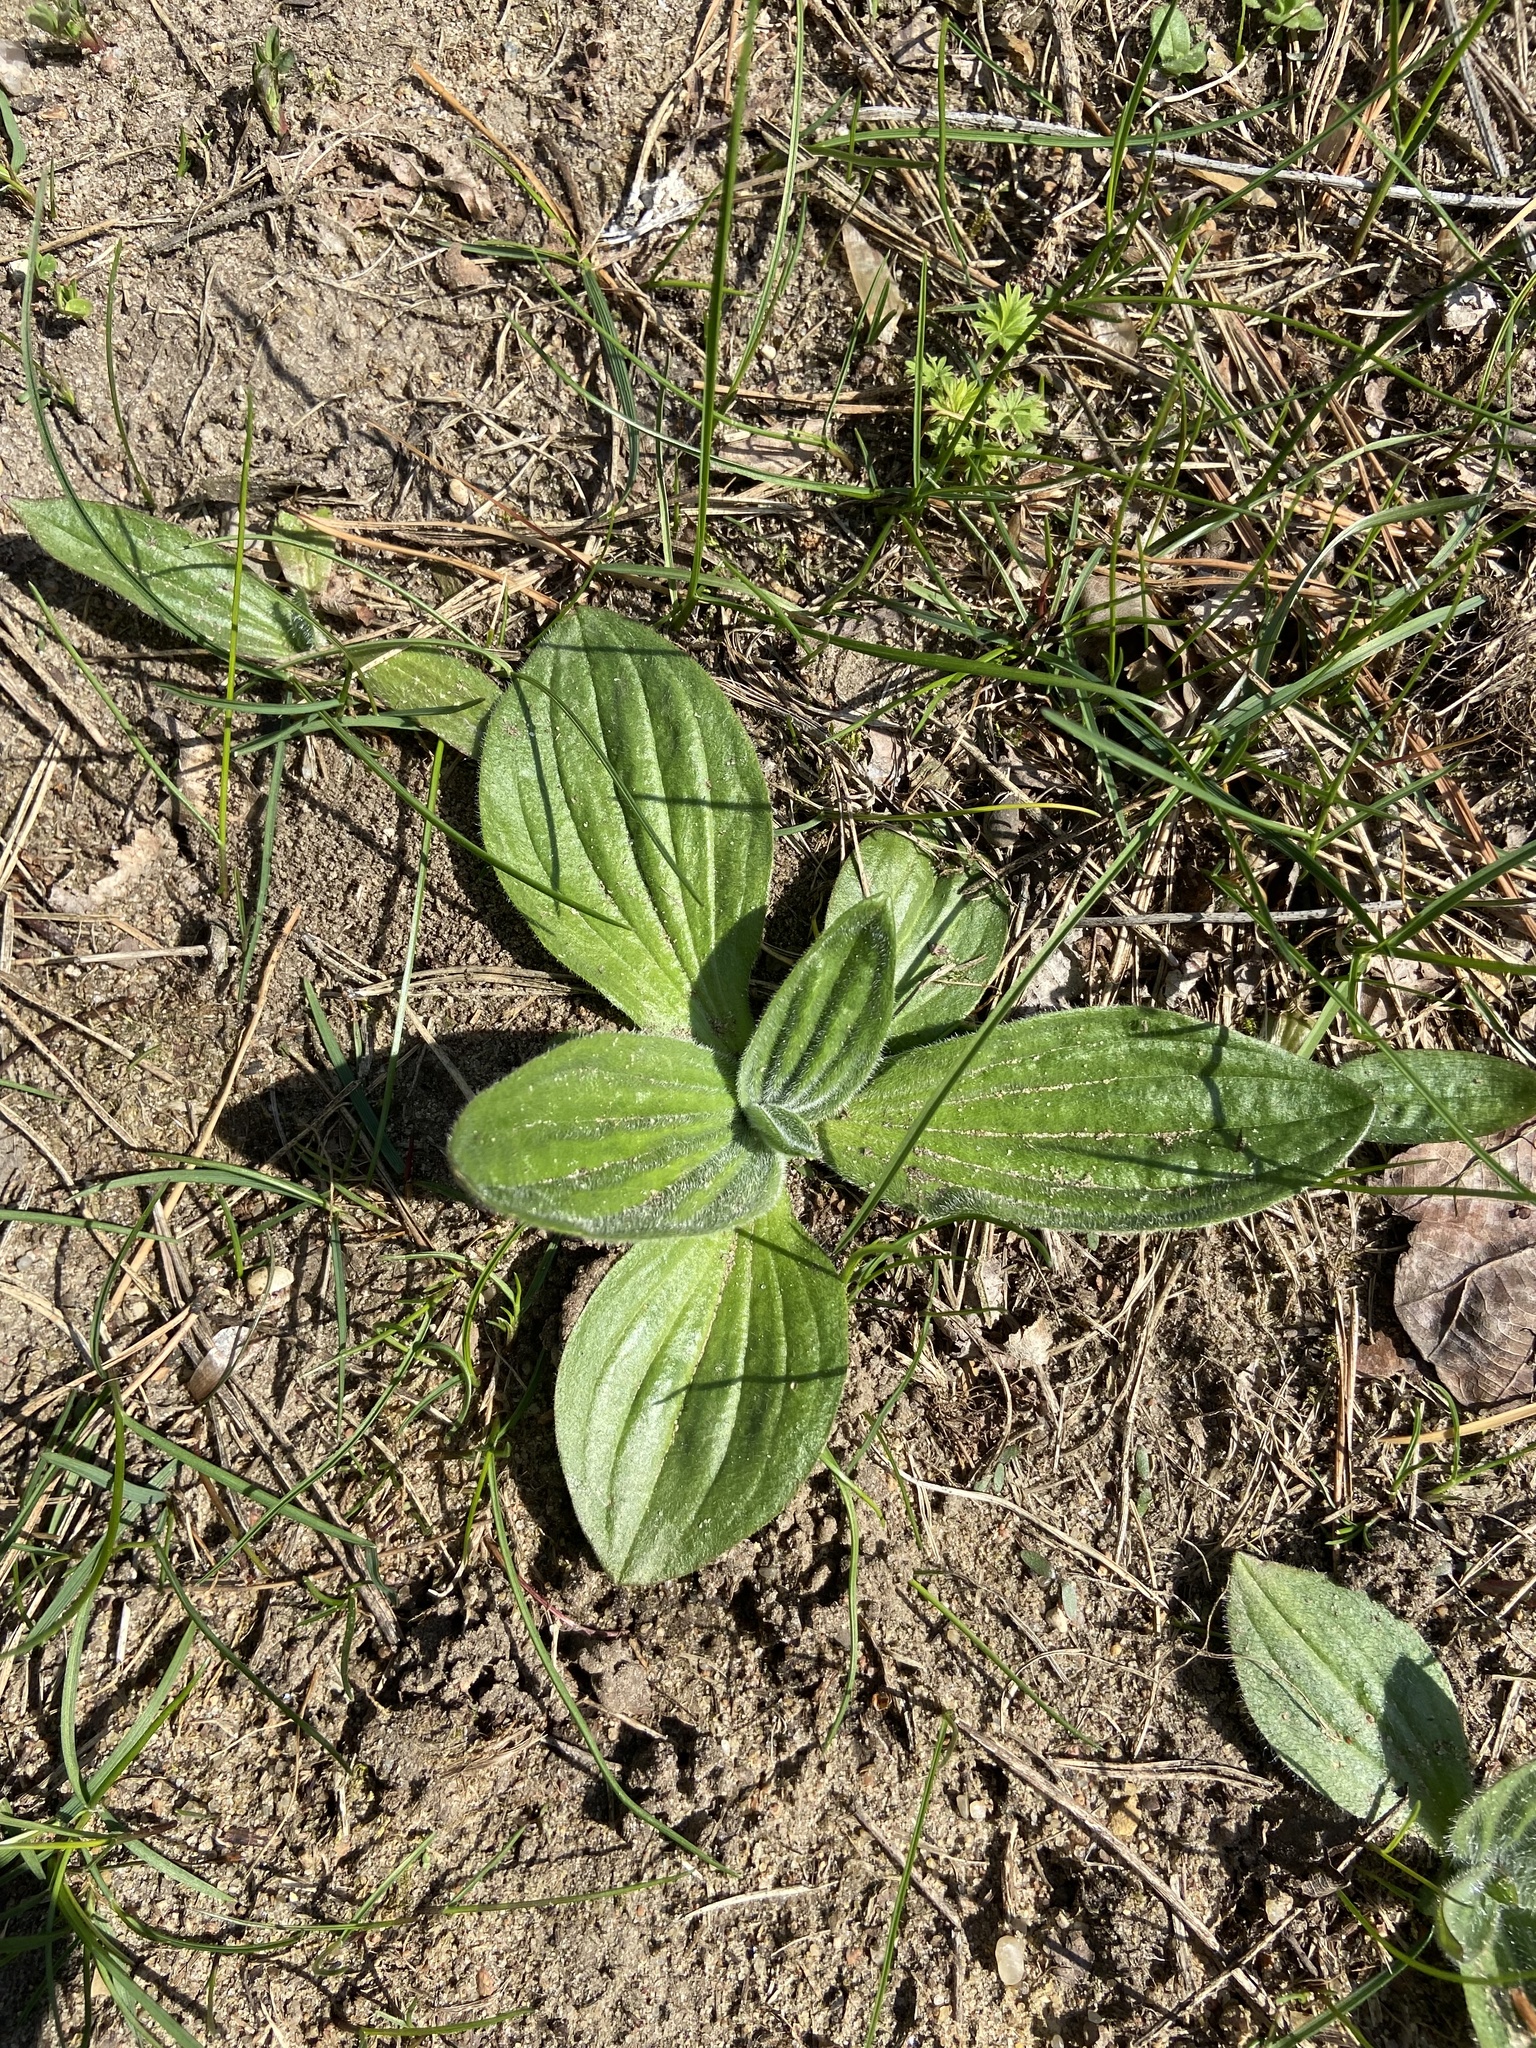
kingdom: Plantae
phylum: Tracheophyta
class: Magnoliopsida
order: Lamiales
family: Plantaginaceae
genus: Plantago
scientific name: Plantago media
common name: Hoary plantain
